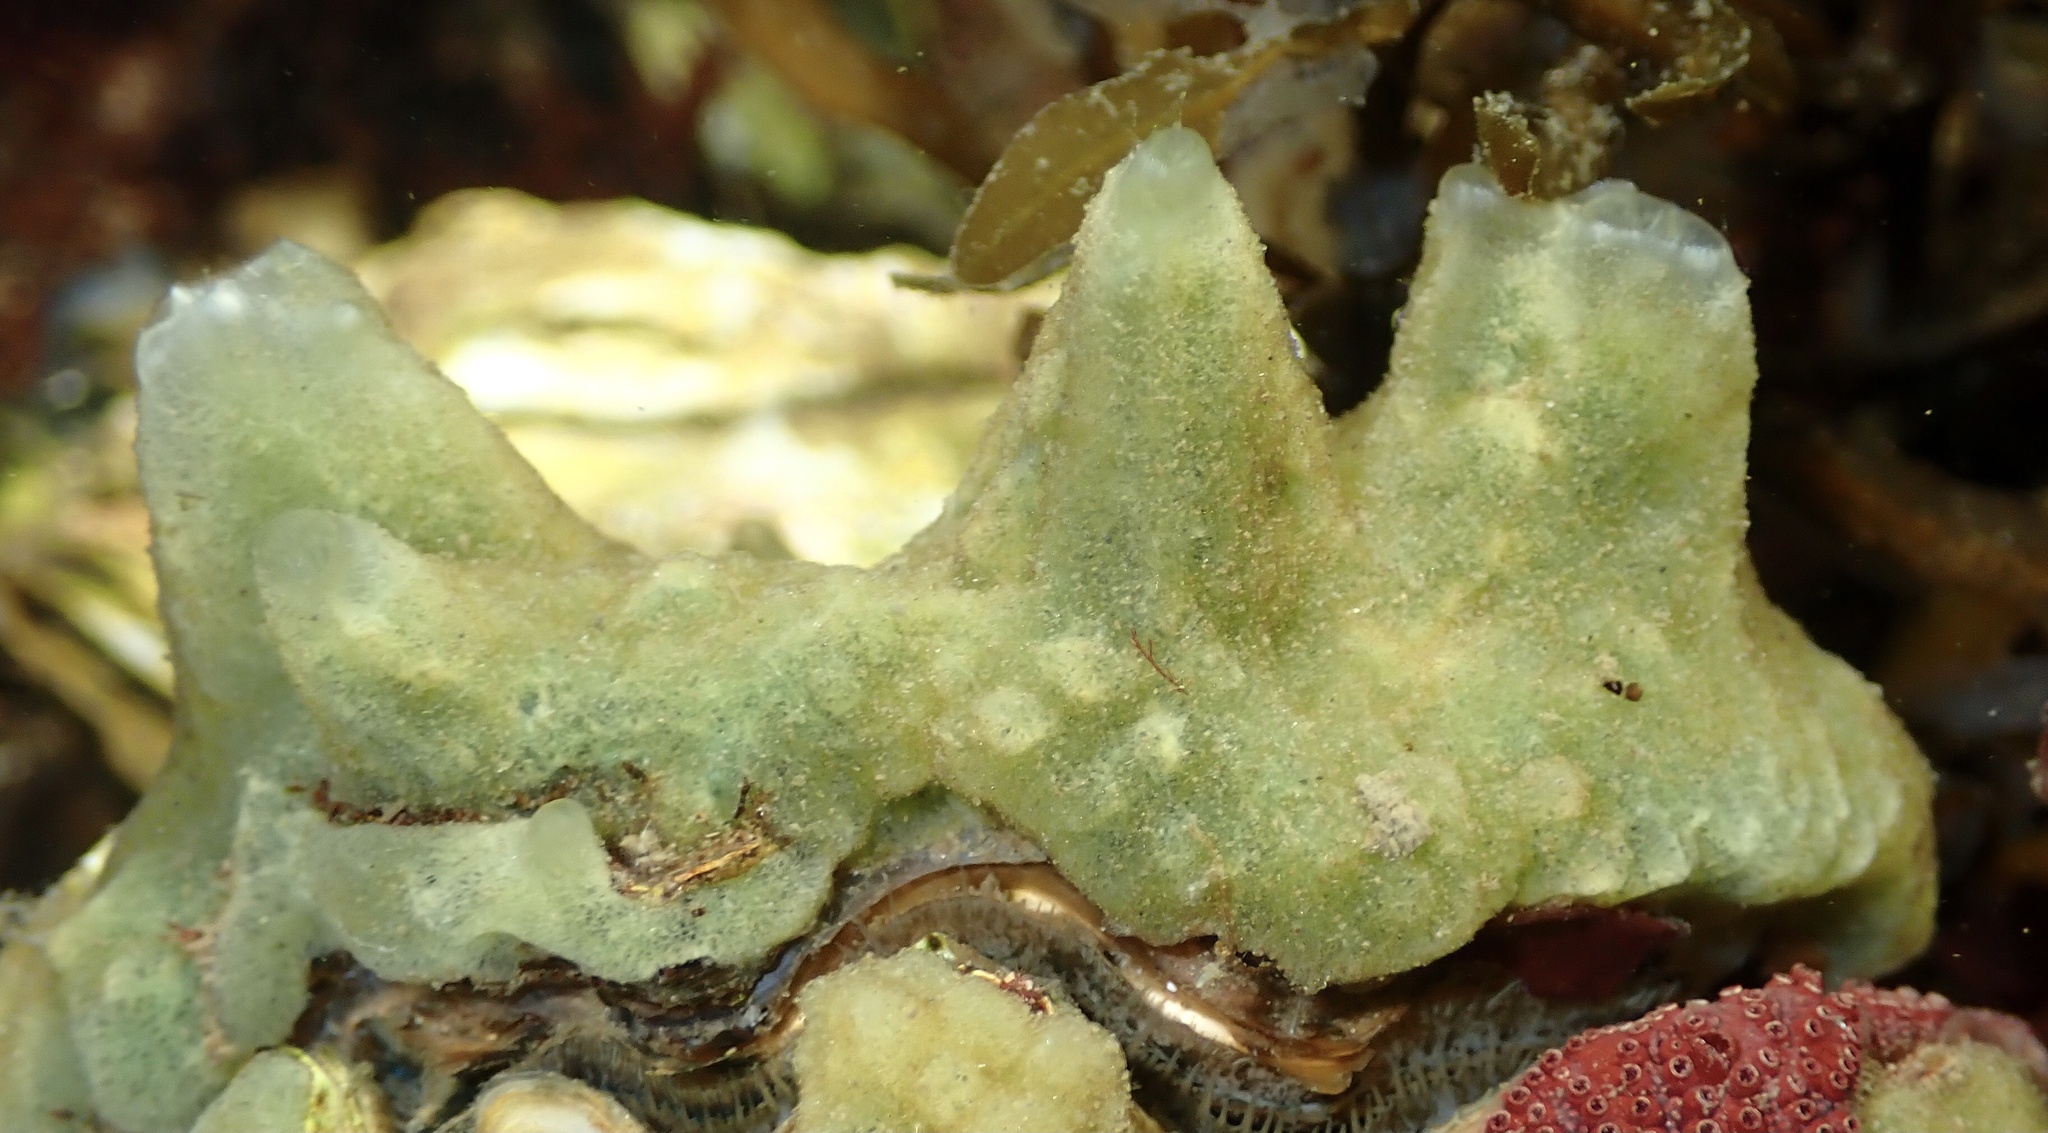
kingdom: Animalia
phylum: Porifera
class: Demospongiae
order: Suberitida
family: Halichondriidae
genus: Halichondria
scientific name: Halichondria panicea
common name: Breadcrumb sponge
